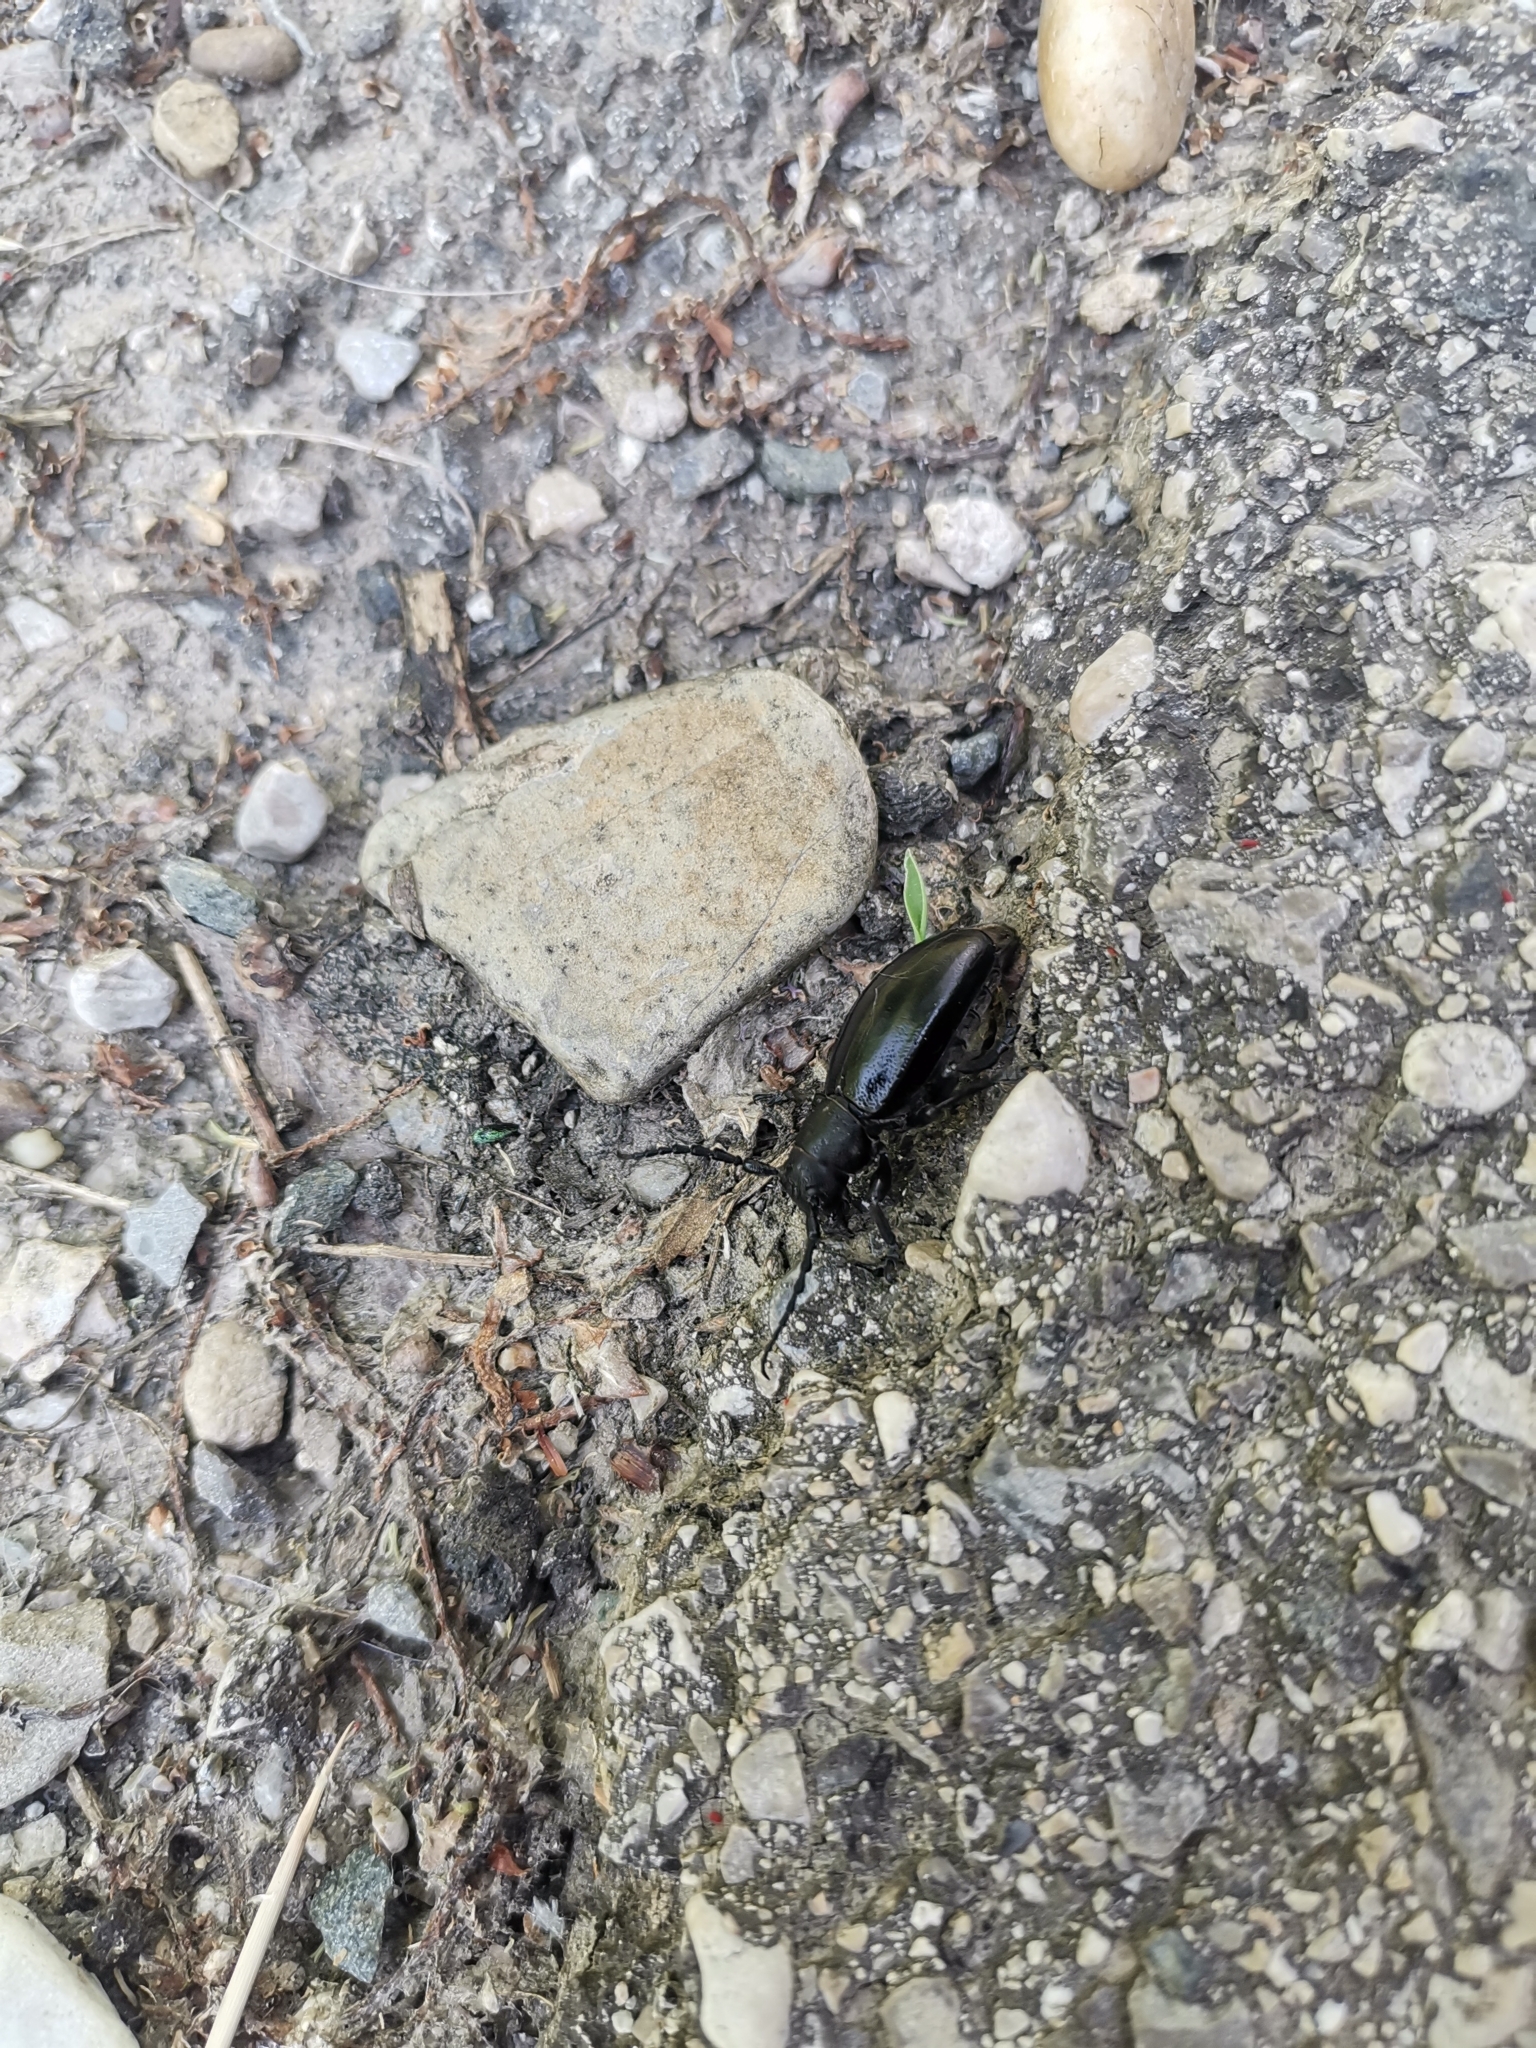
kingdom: Animalia
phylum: Arthropoda
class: Insecta
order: Coleoptera
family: Cerambycidae
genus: Dorcadion
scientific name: Dorcadion aethiops
